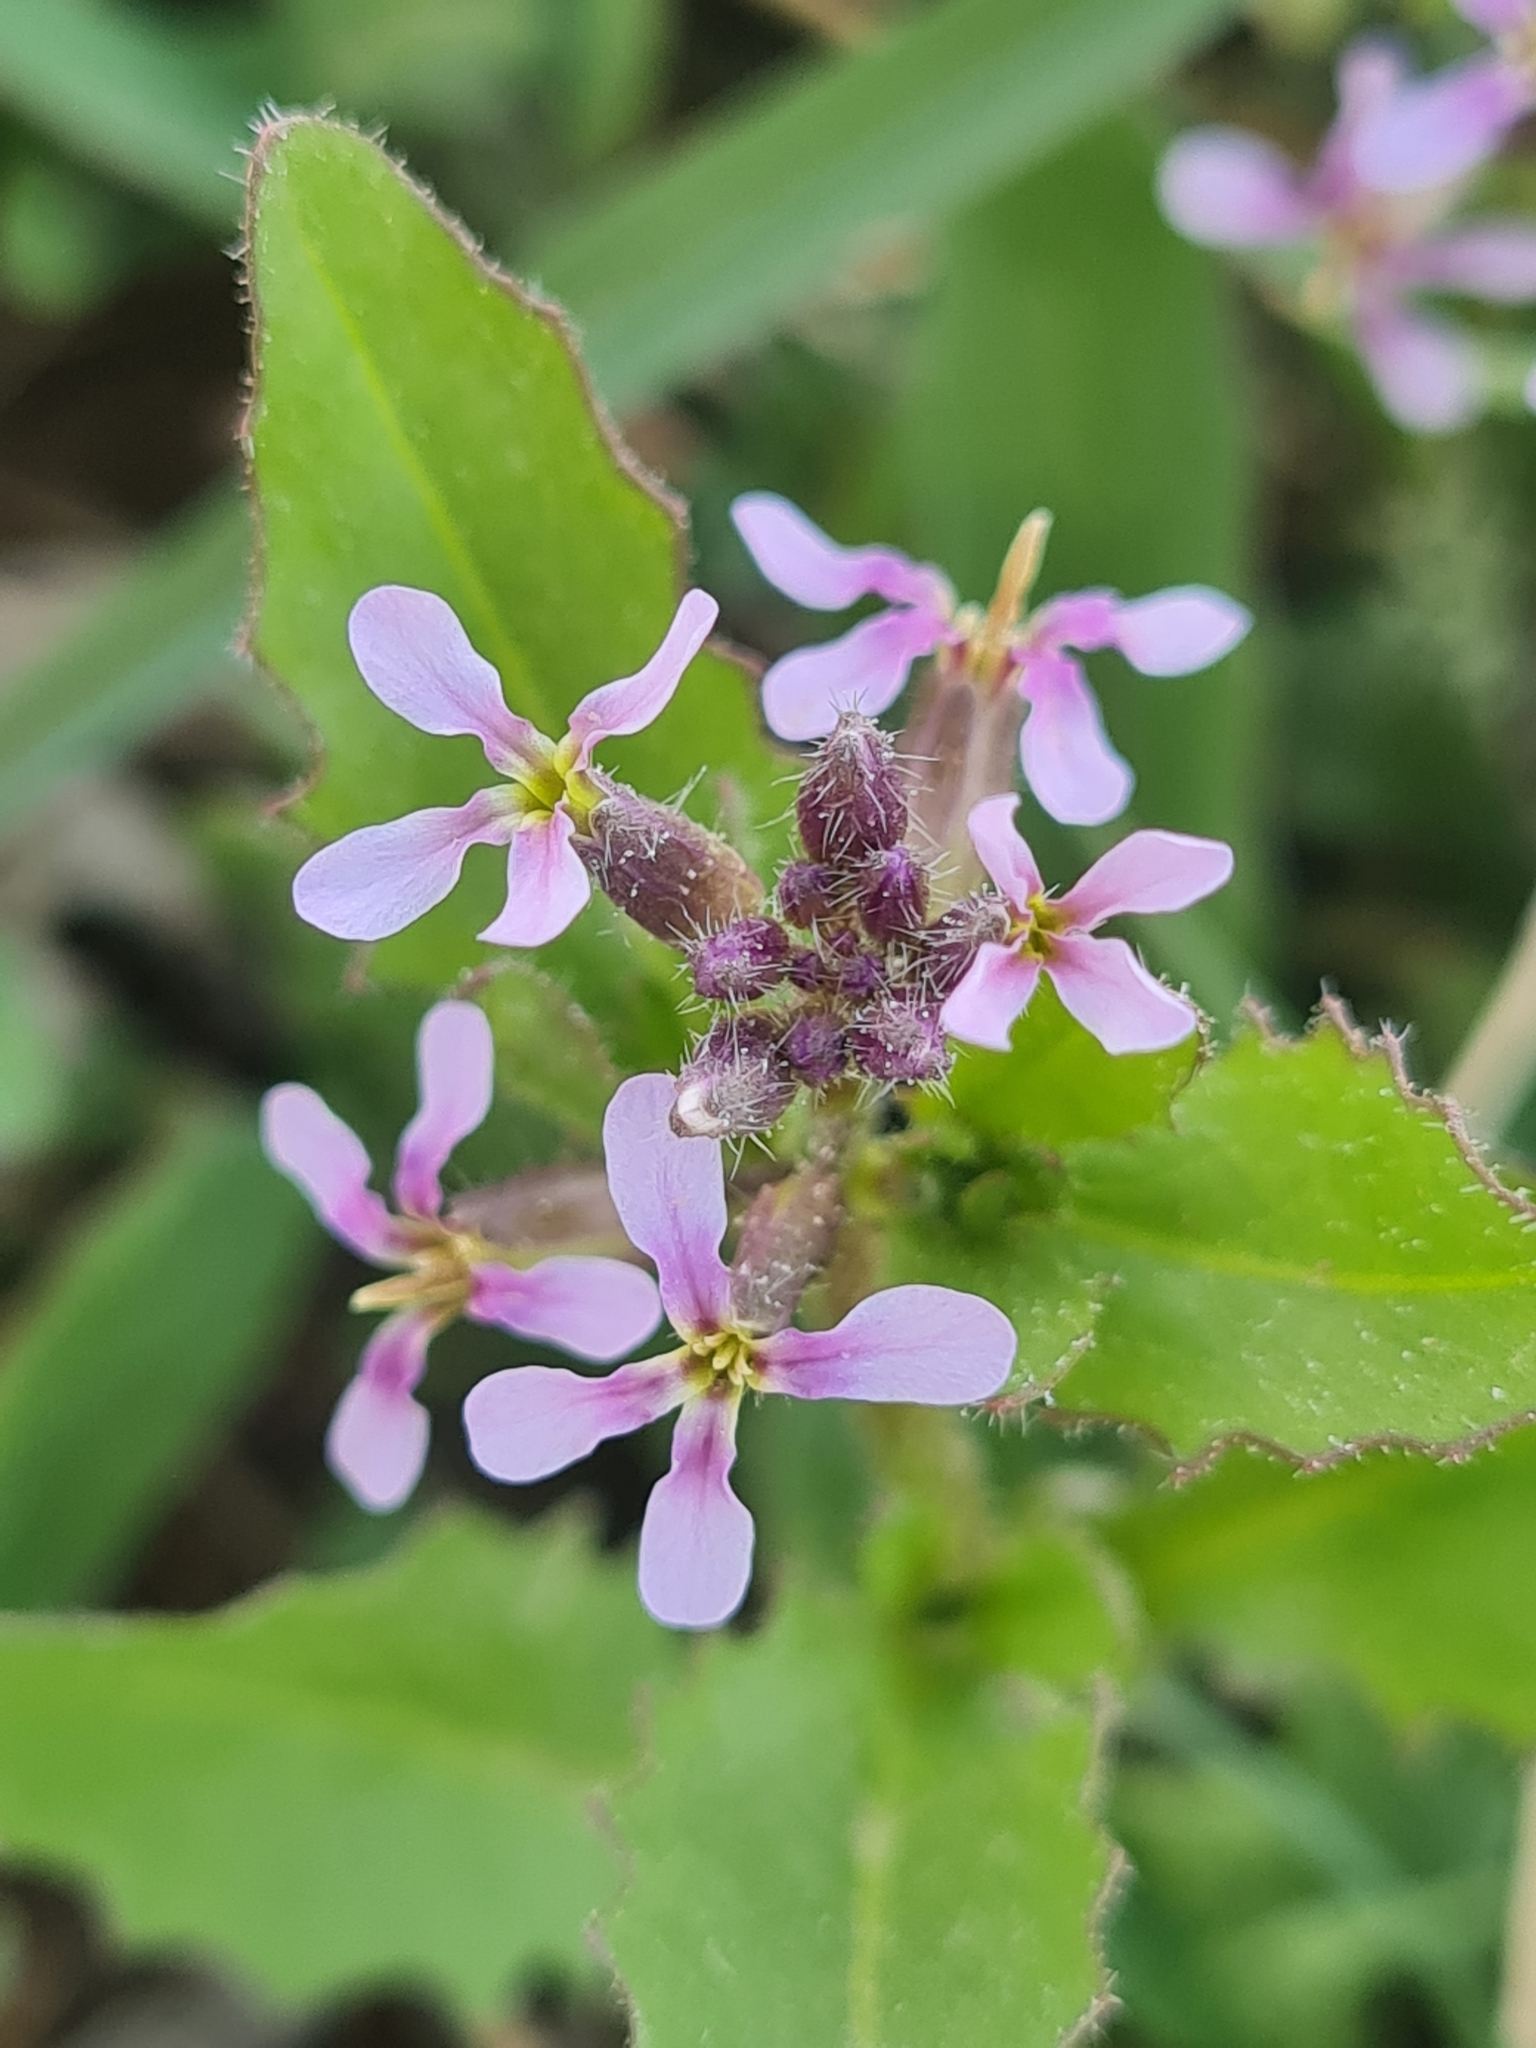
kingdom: Plantae
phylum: Tracheophyta
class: Magnoliopsida
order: Brassicales
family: Brassicaceae
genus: Chorispora
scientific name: Chorispora tenella
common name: Crossflower
